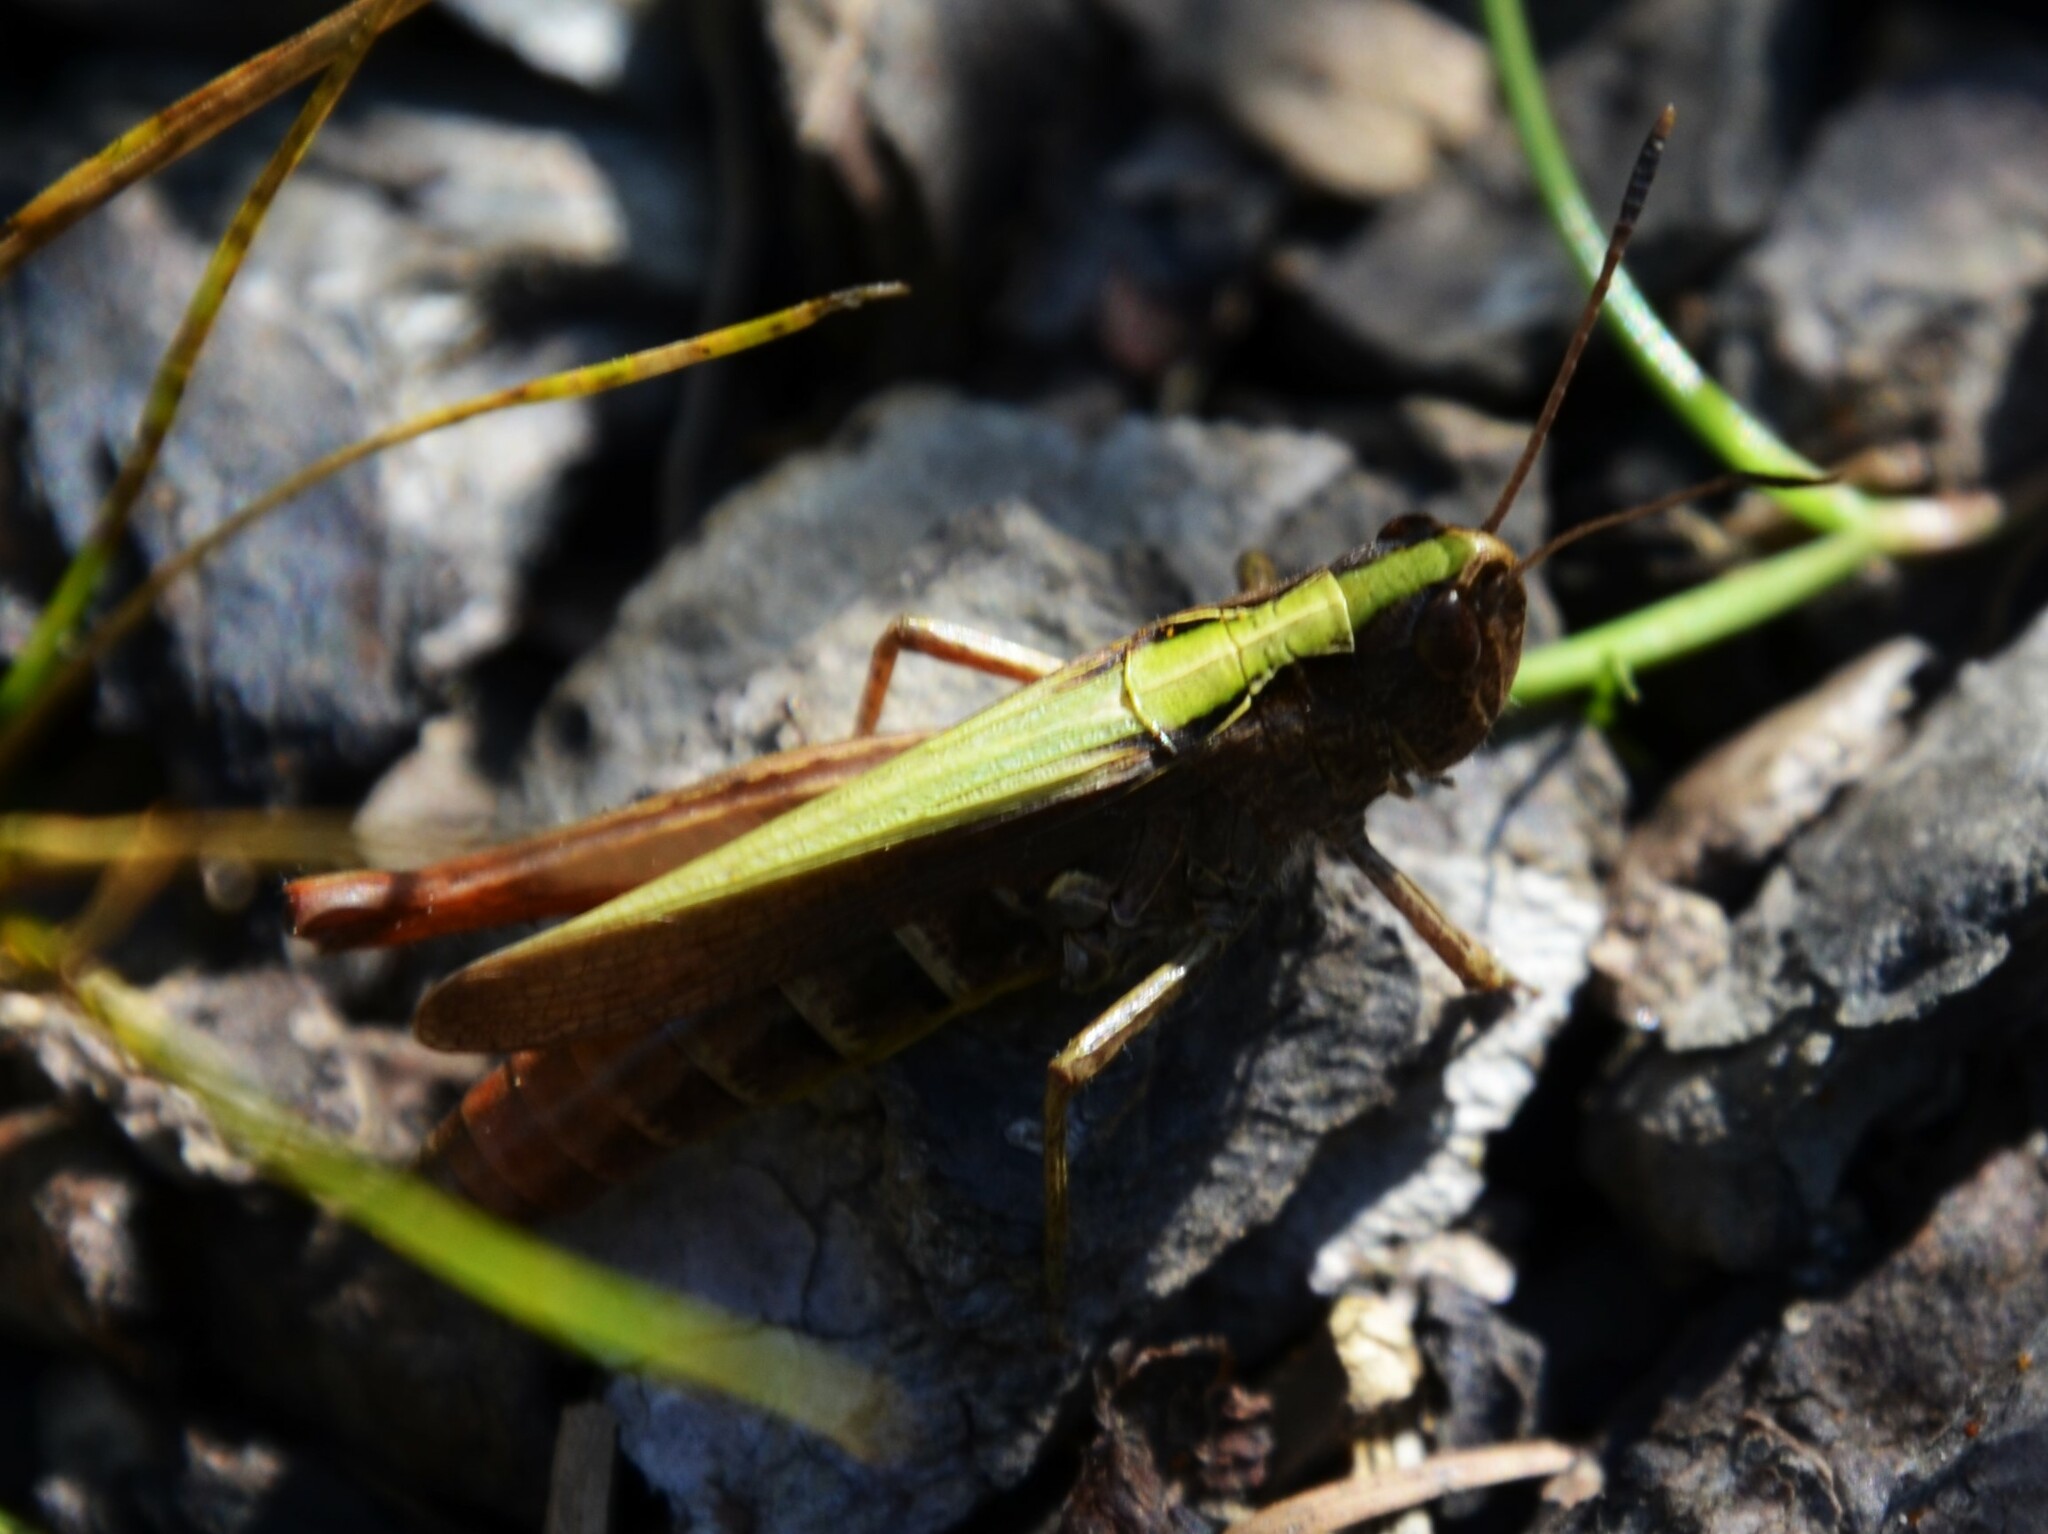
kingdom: Animalia
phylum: Arthropoda
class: Insecta
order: Orthoptera
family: Acrididae
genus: Gomphocerippus
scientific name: Gomphocerippus rufus
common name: Rufous grasshopper
